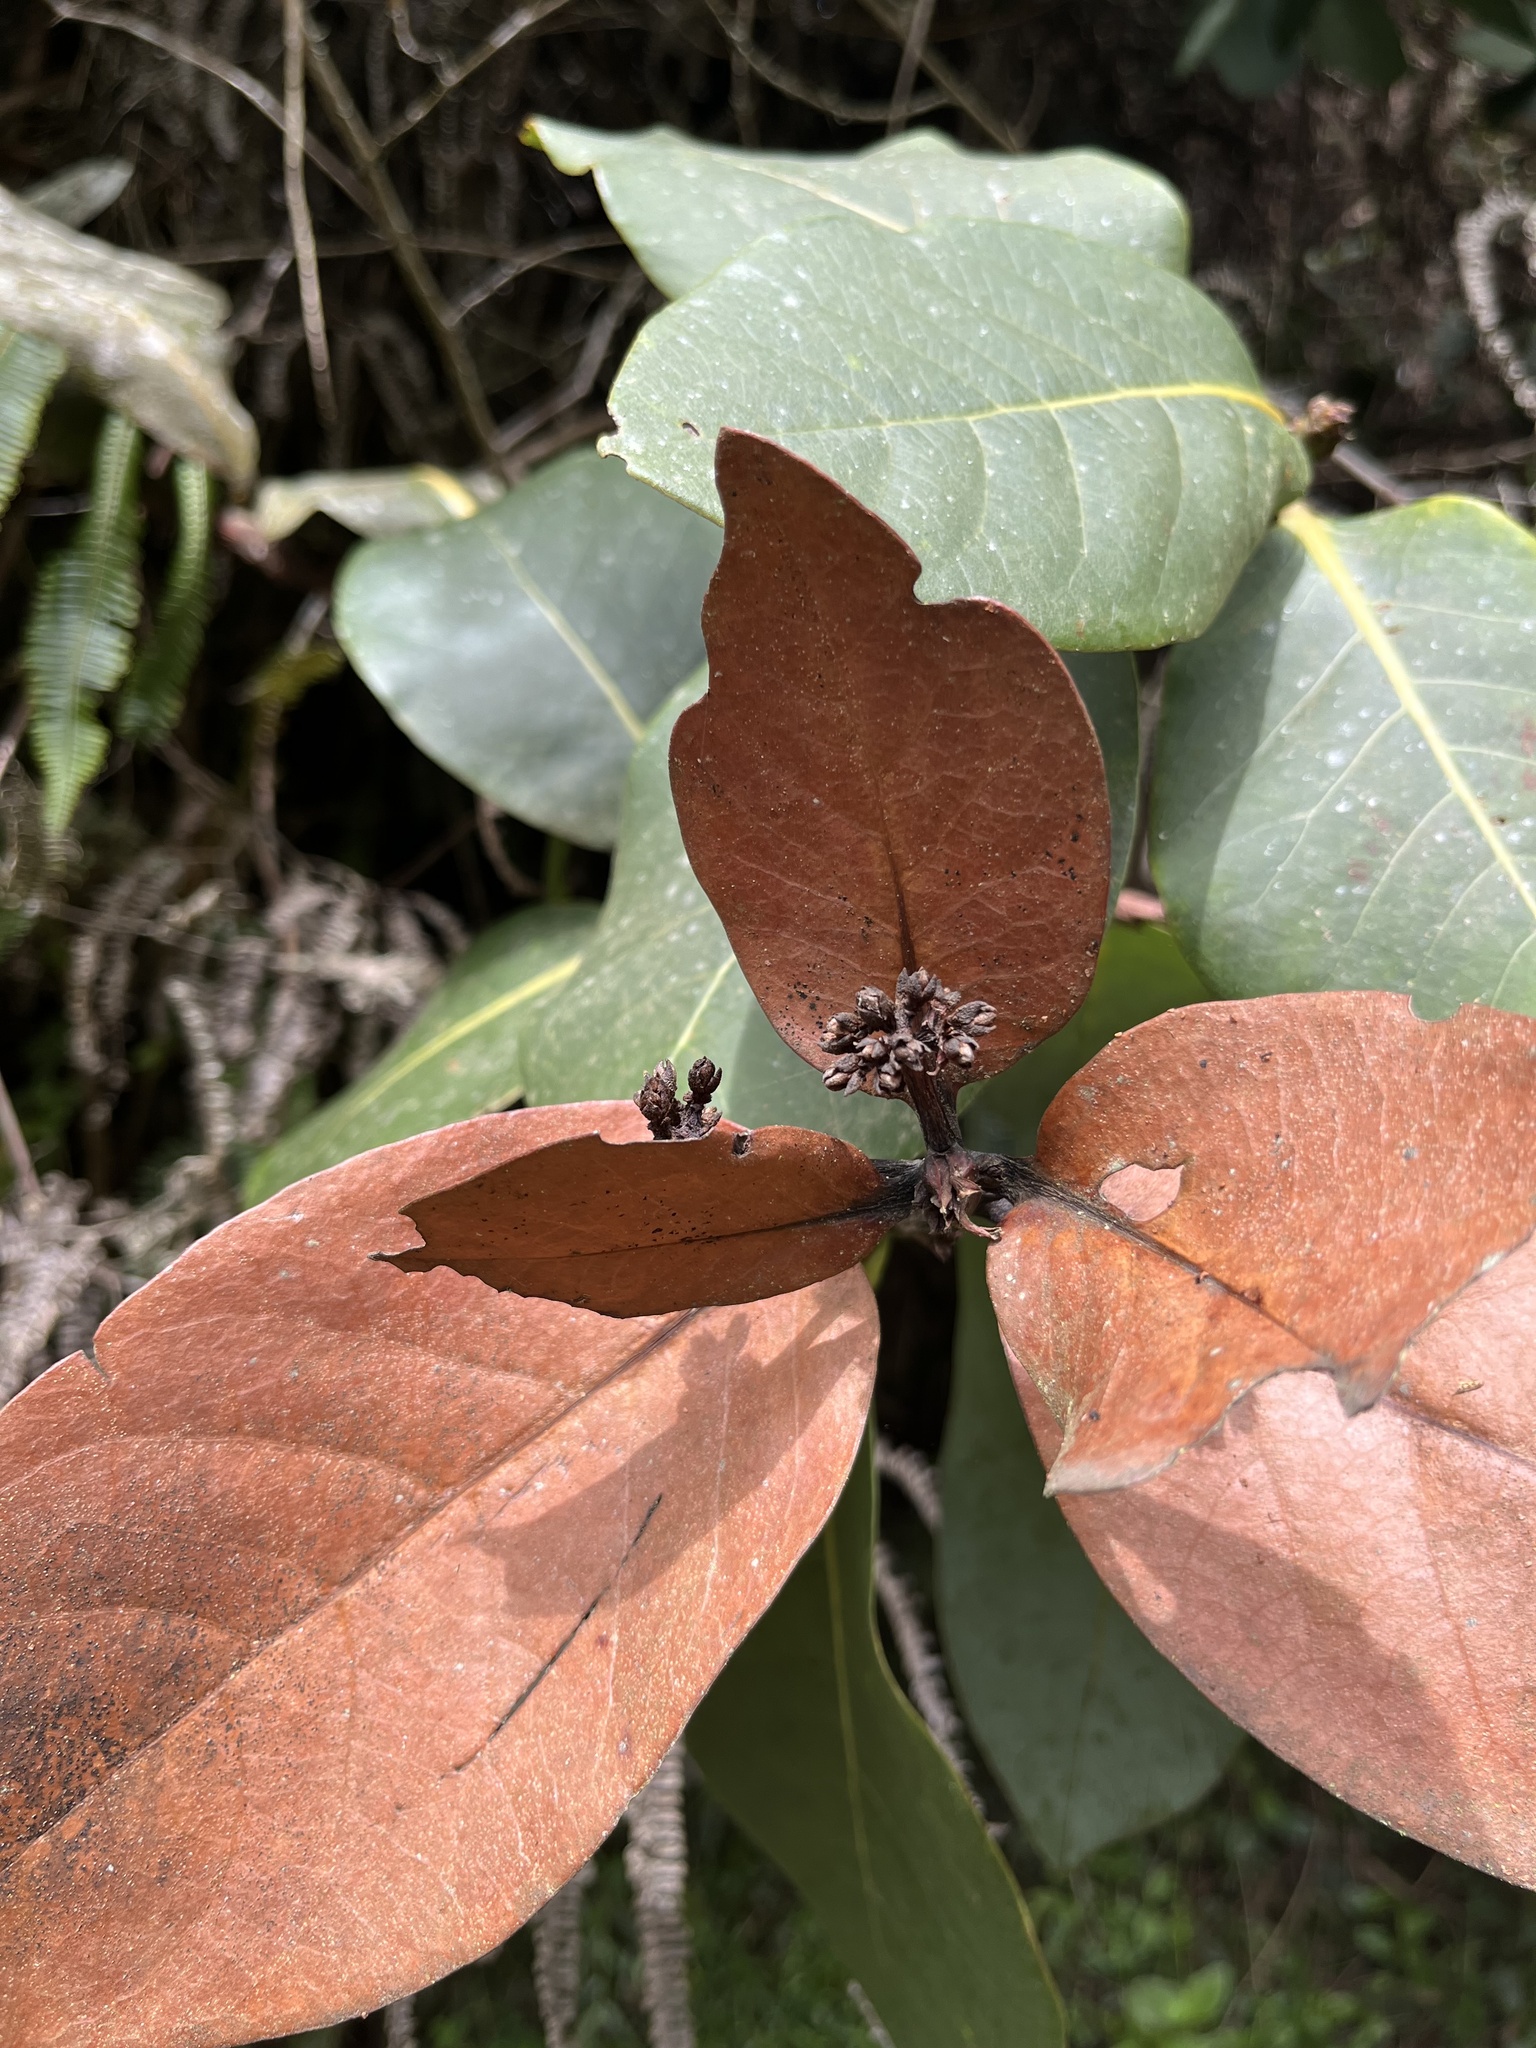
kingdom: Plantae
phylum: Tracheophyta
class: Magnoliopsida
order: Laurales
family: Lauraceae
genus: Persea
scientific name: Persea mutisii
